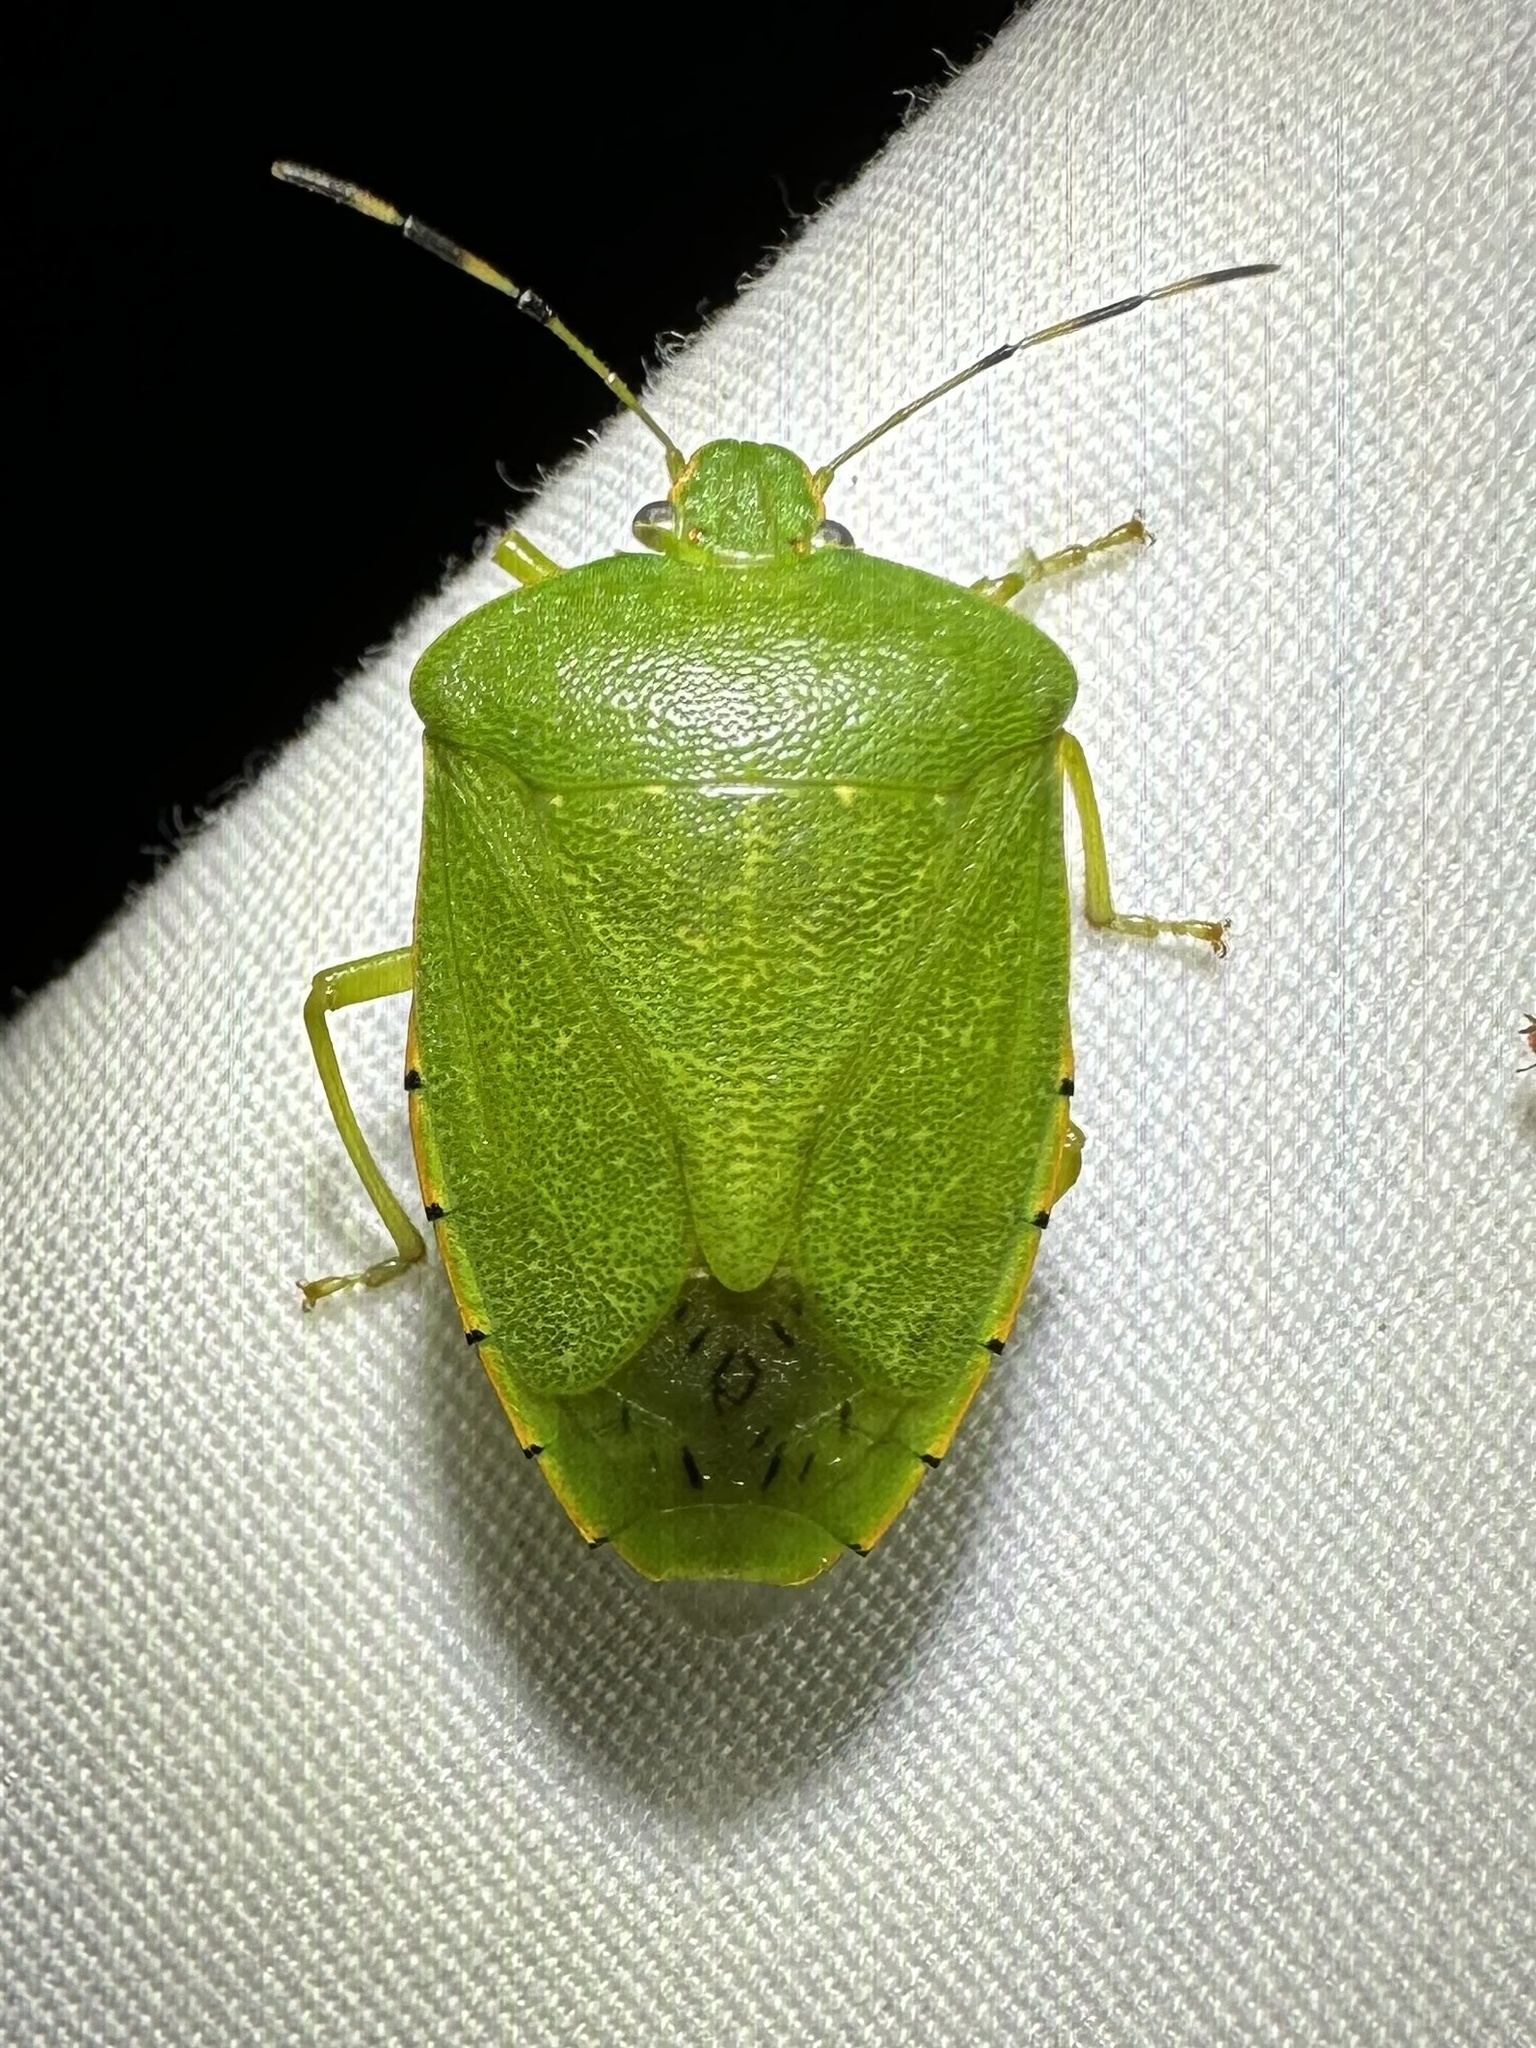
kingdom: Animalia
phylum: Arthropoda
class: Insecta
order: Hemiptera
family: Pentatomidae
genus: Chinavia
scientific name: Chinavia hilaris
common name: Green stink bug
